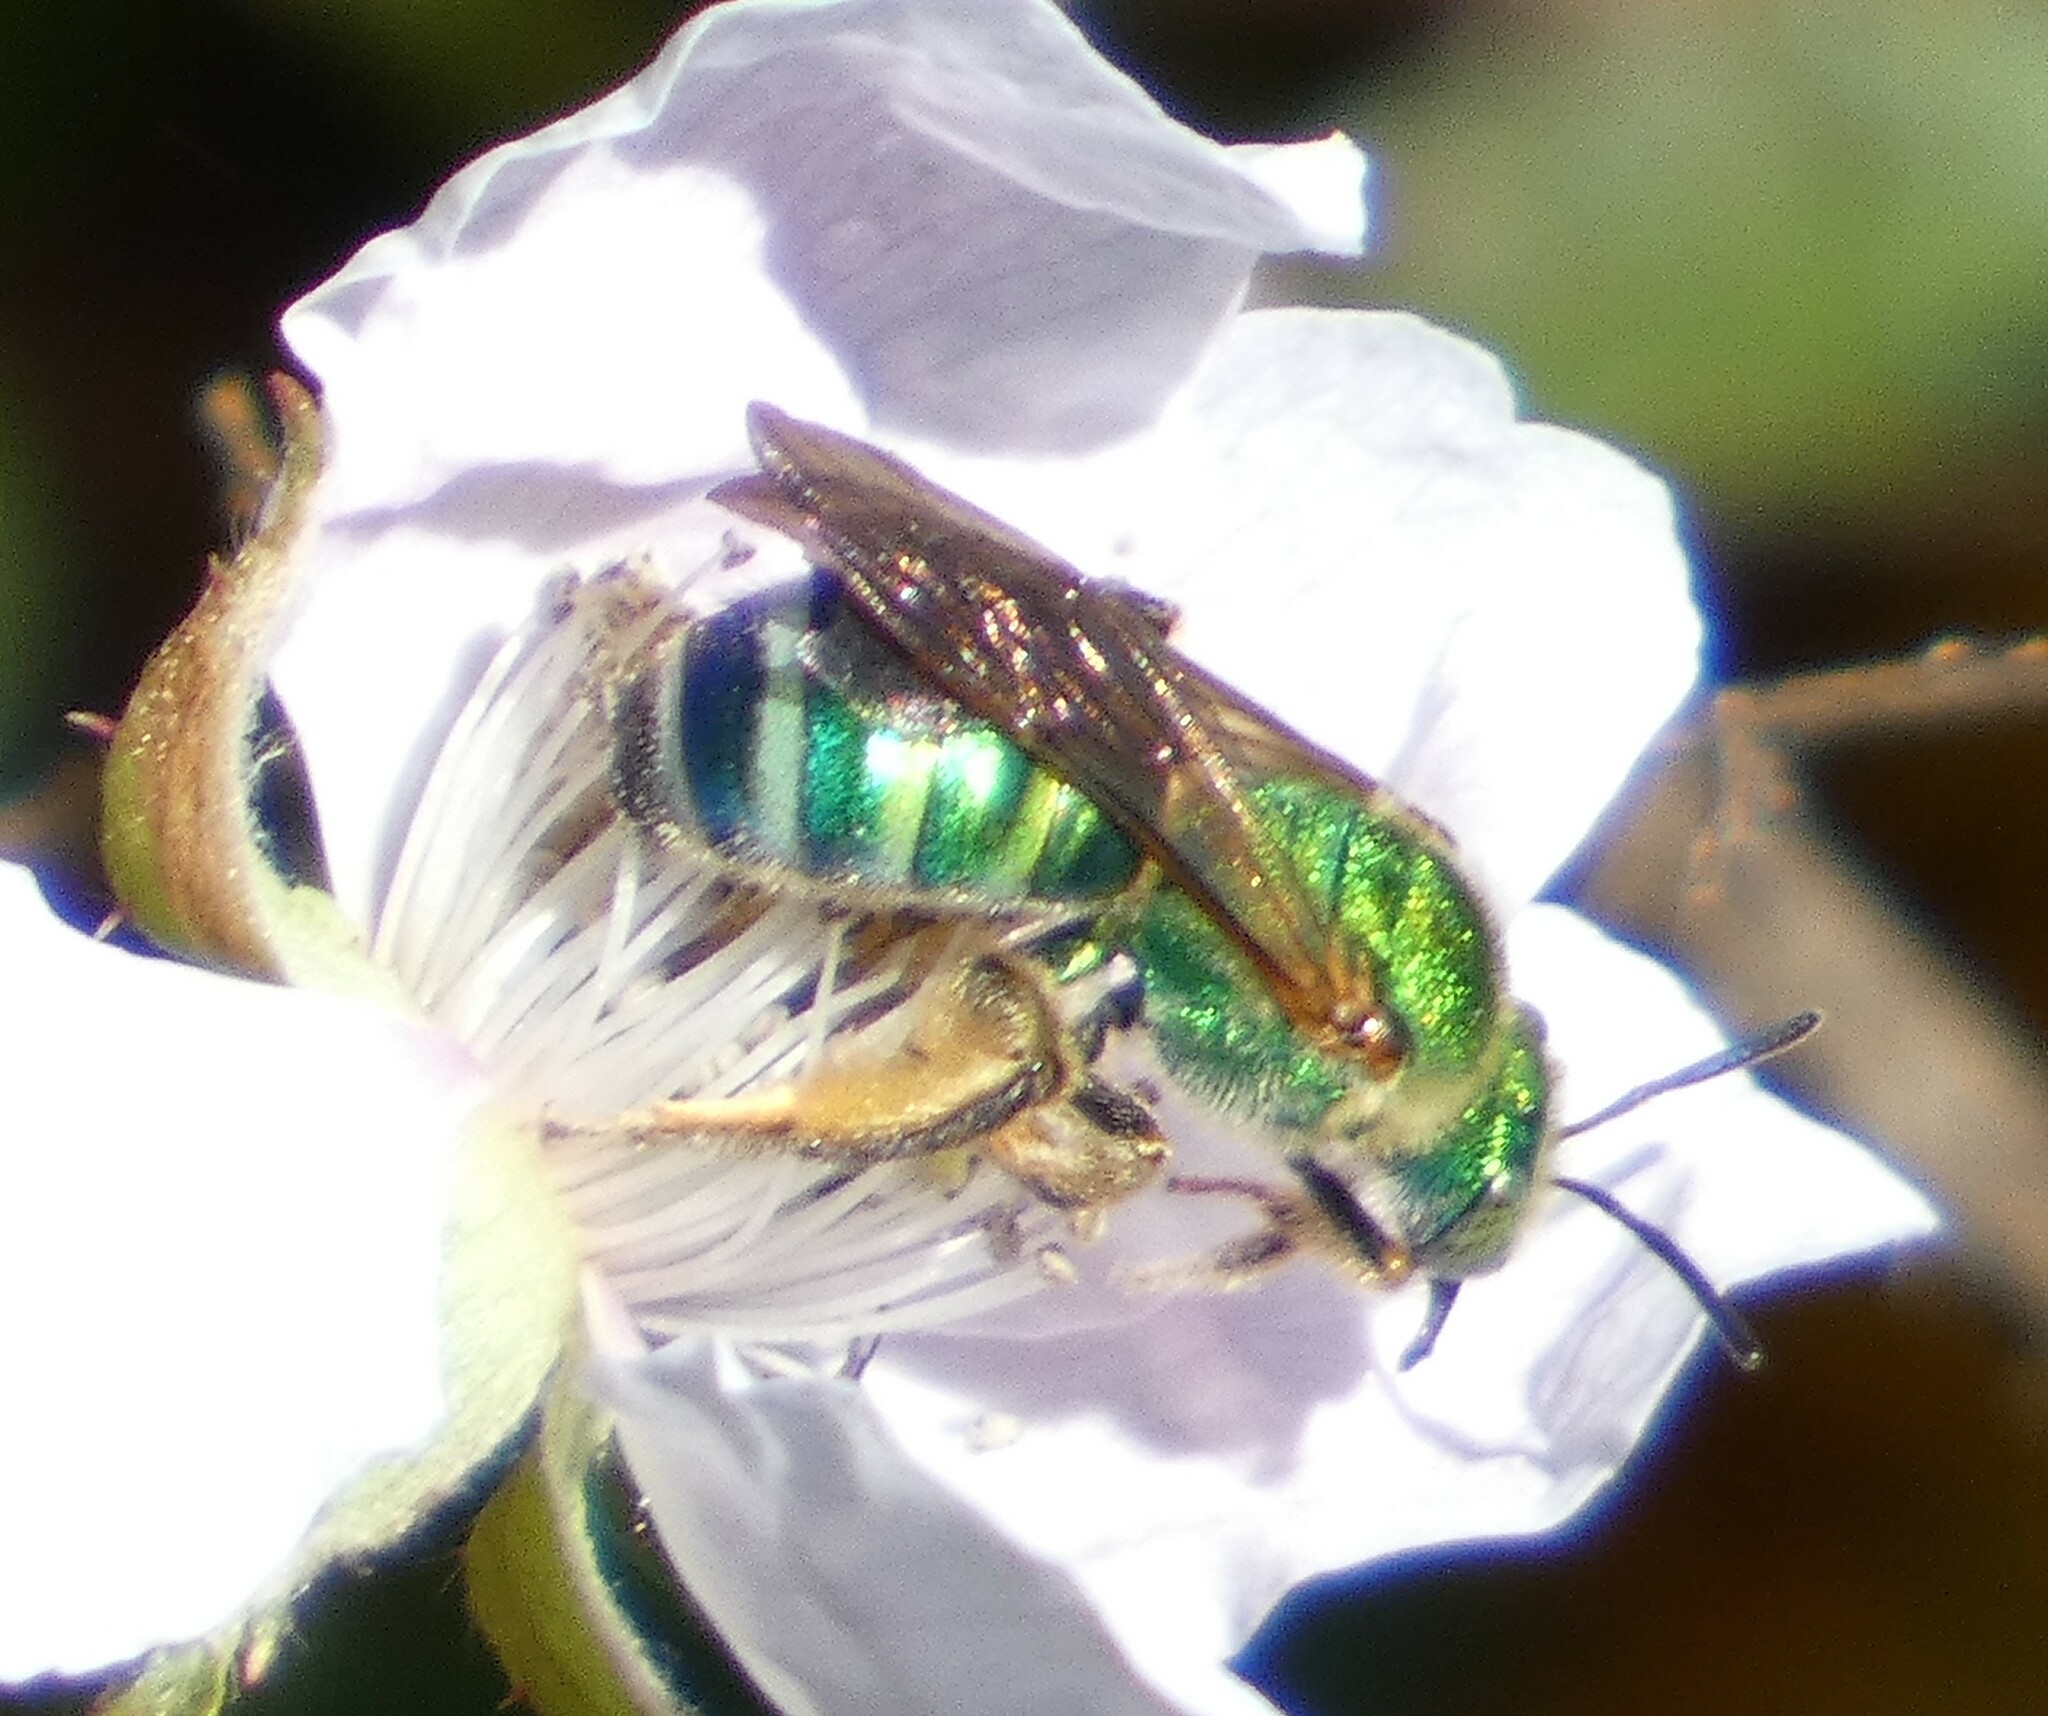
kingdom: Animalia
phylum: Arthropoda
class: Insecta
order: Hymenoptera
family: Halictidae
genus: Agapostemon
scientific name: Agapostemon splendens
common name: Brown-winged striped sweat bee
